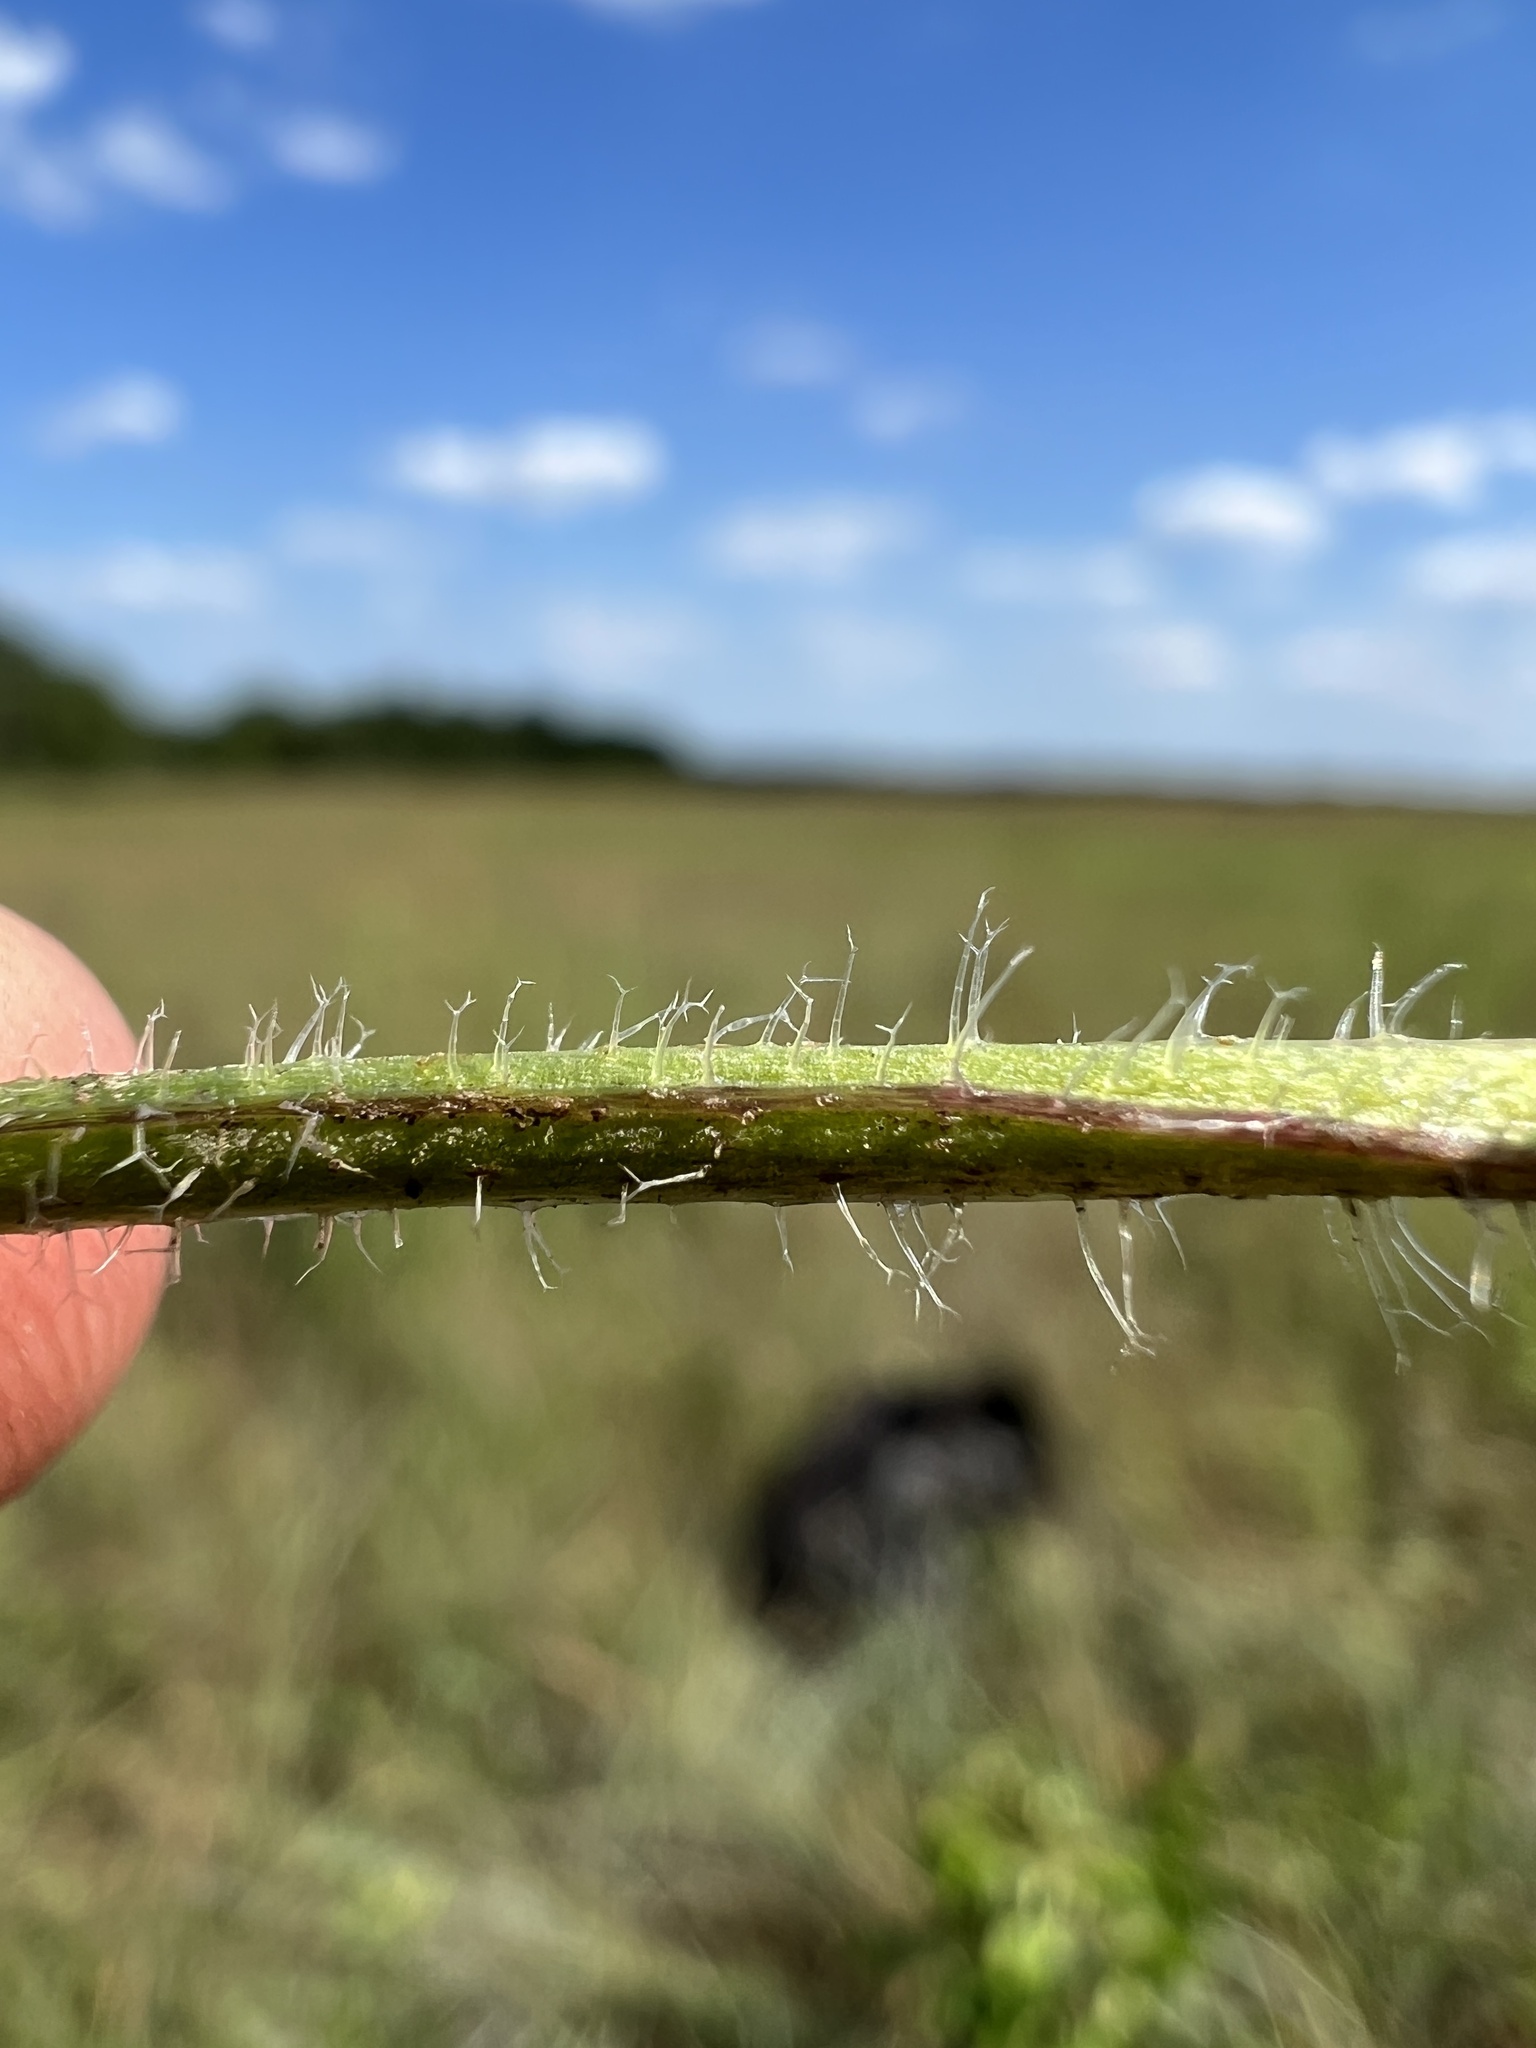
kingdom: Plantae
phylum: Tracheophyta
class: Magnoliopsida
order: Solanales
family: Solanaceae
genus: Physalis
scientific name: Physalis pumila
